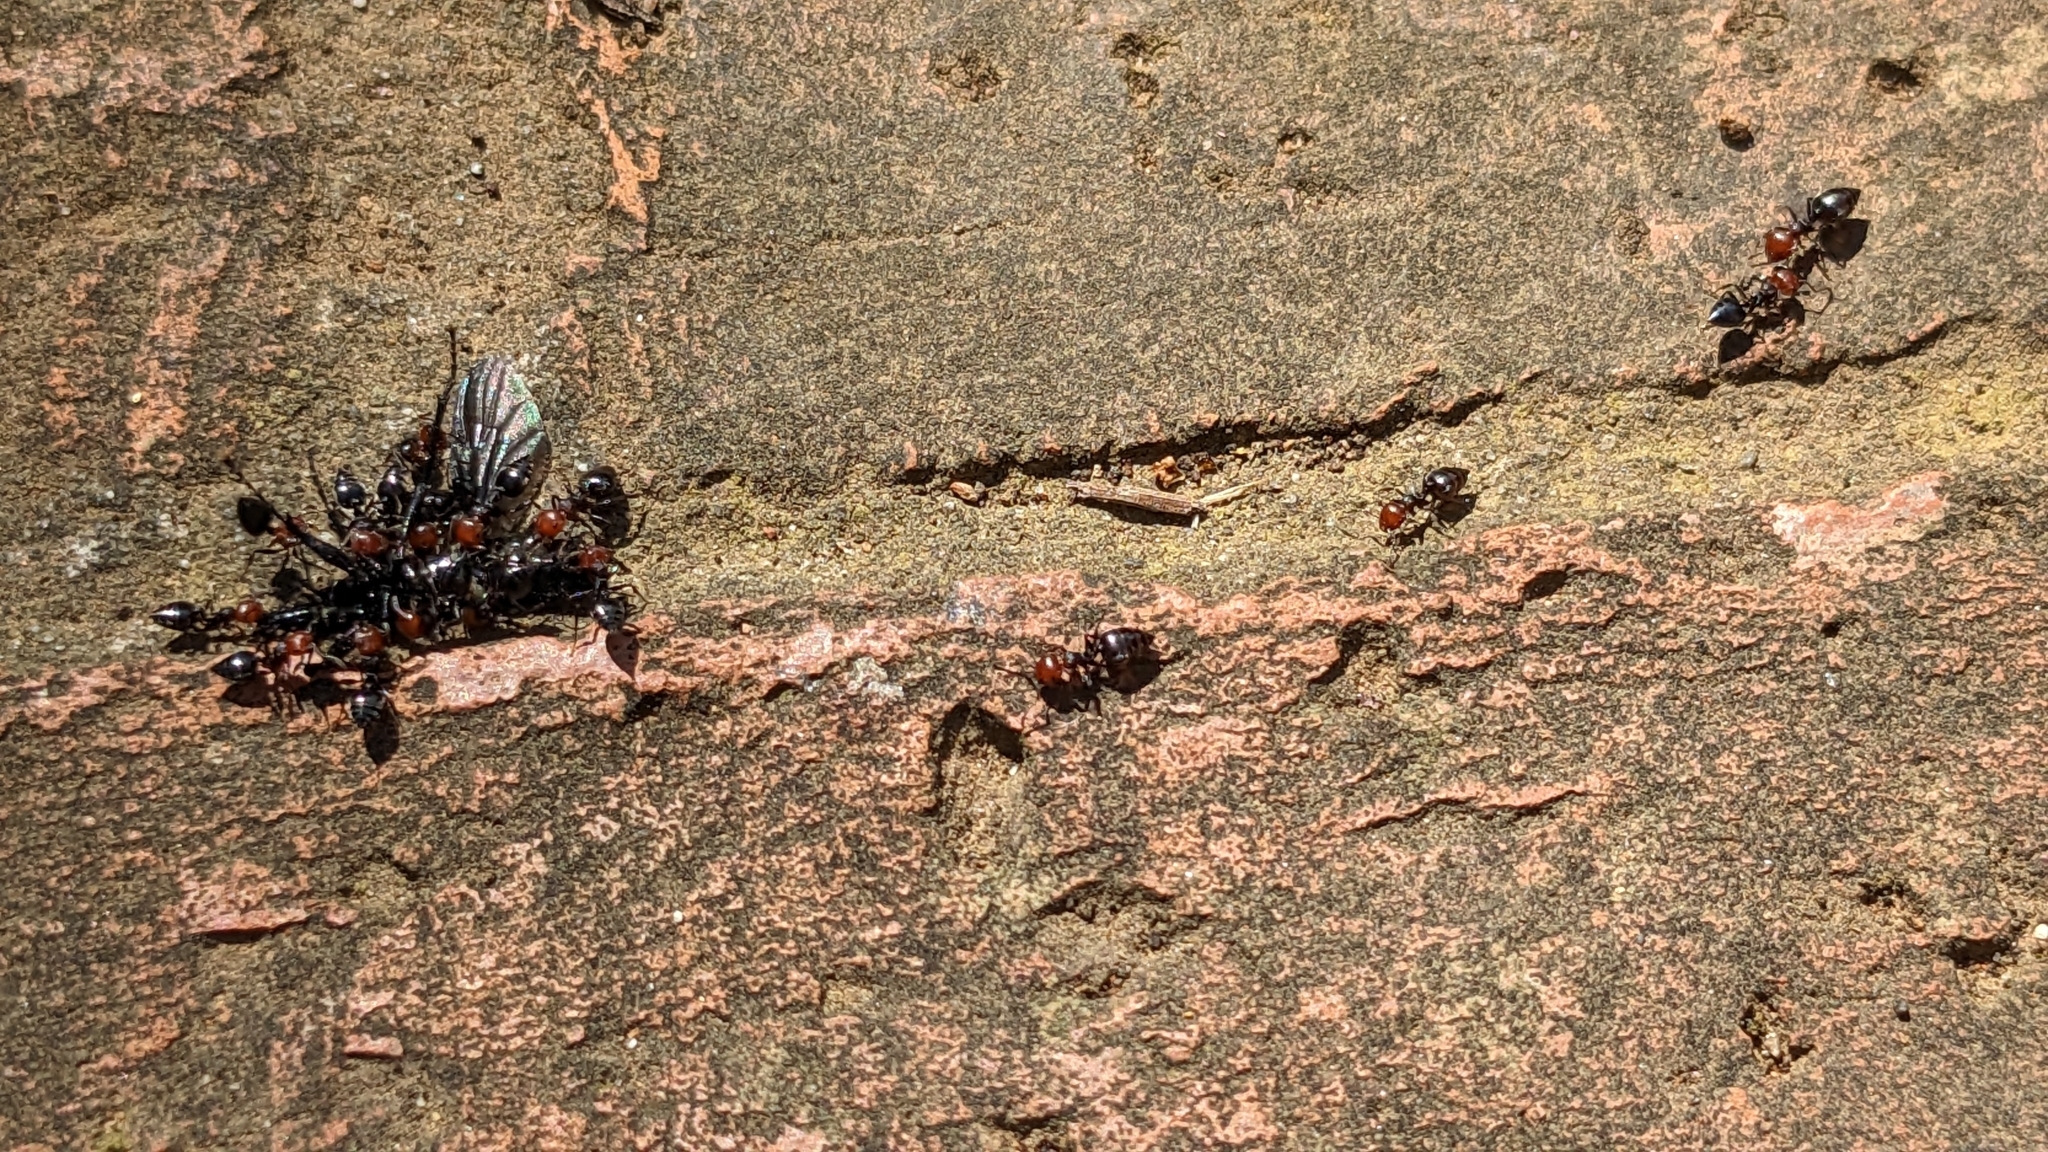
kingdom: Animalia
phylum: Arthropoda
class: Insecta
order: Hymenoptera
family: Formicidae
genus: Crematogaster
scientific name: Crematogaster scutellaris
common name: Fourmi du liège
